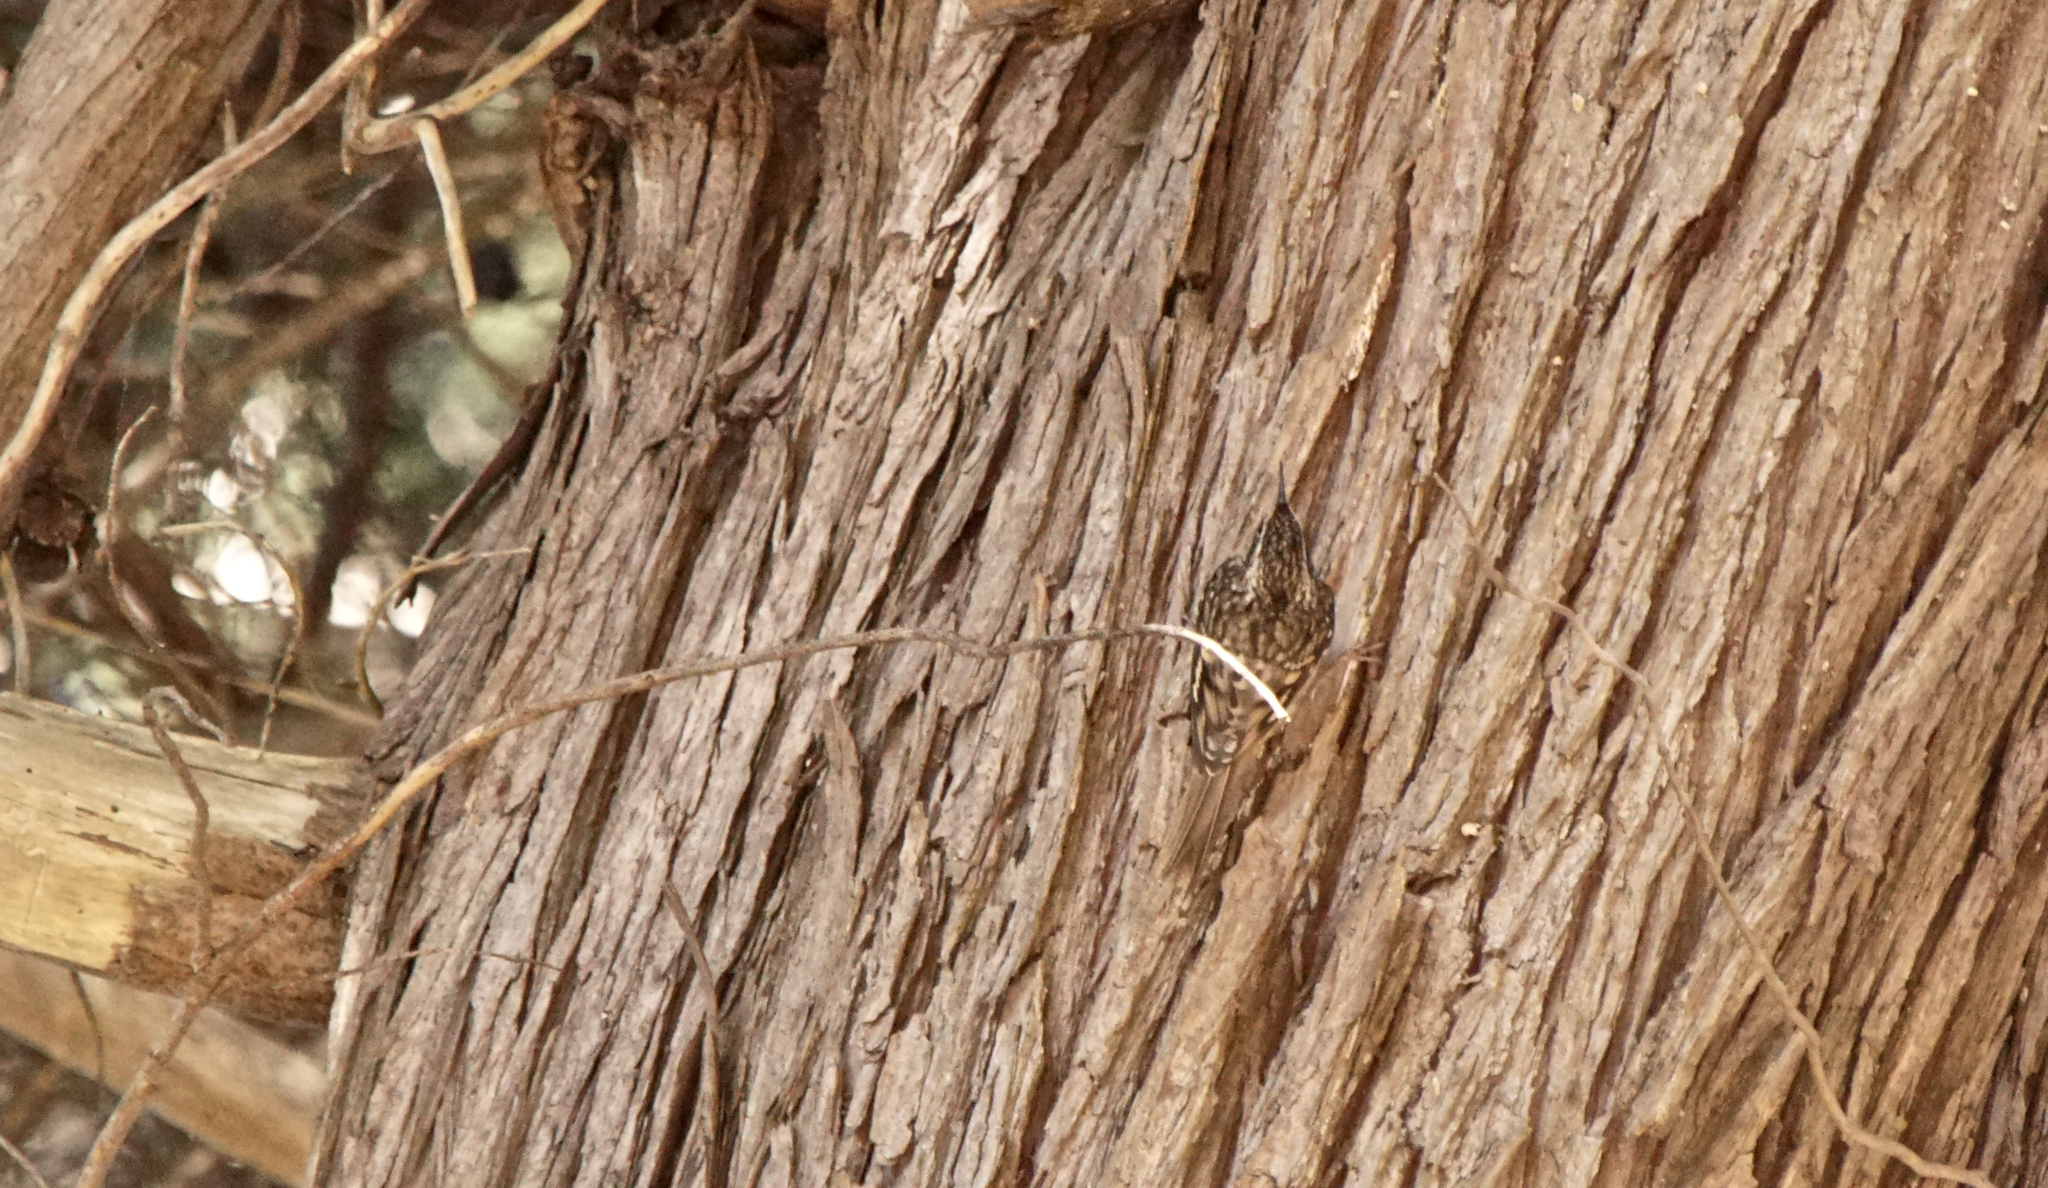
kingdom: Animalia
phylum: Chordata
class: Aves
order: Passeriformes
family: Certhiidae
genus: Certhia
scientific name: Certhia americana
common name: Brown creeper
